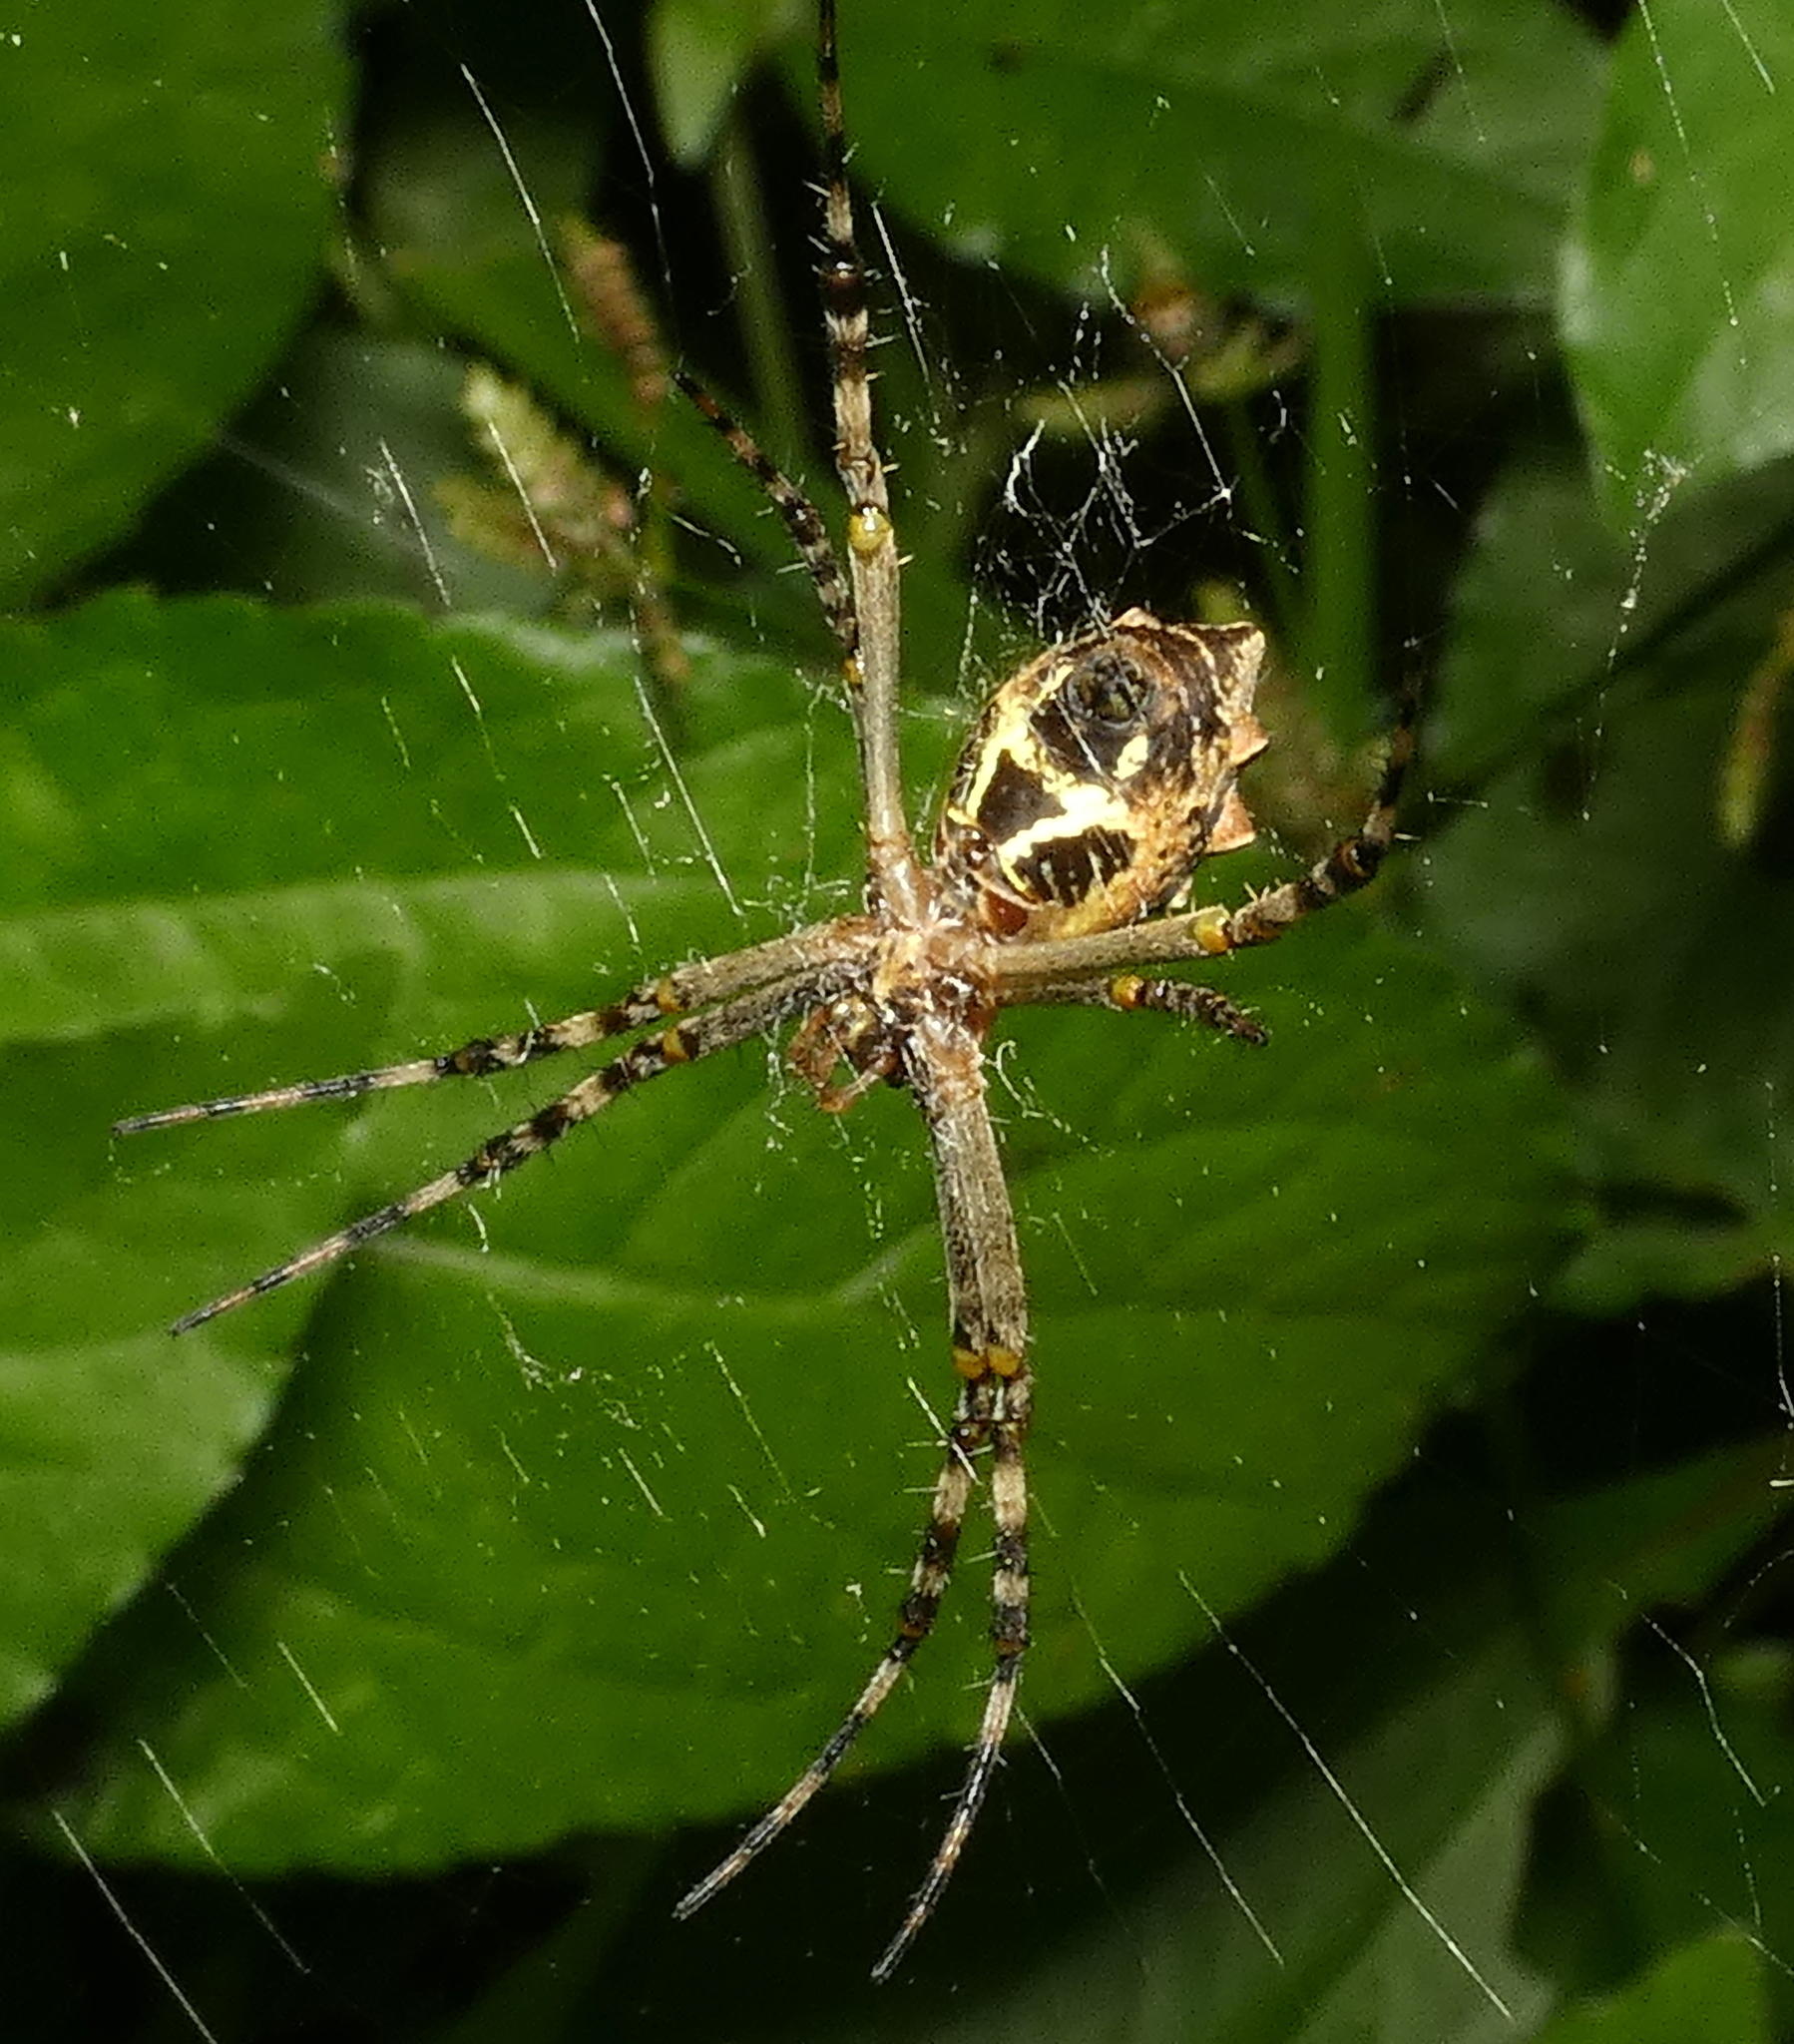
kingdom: Animalia
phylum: Arthropoda
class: Arachnida
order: Araneae
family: Araneidae
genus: Argiope
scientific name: Argiope argentata
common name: Orb weavers
